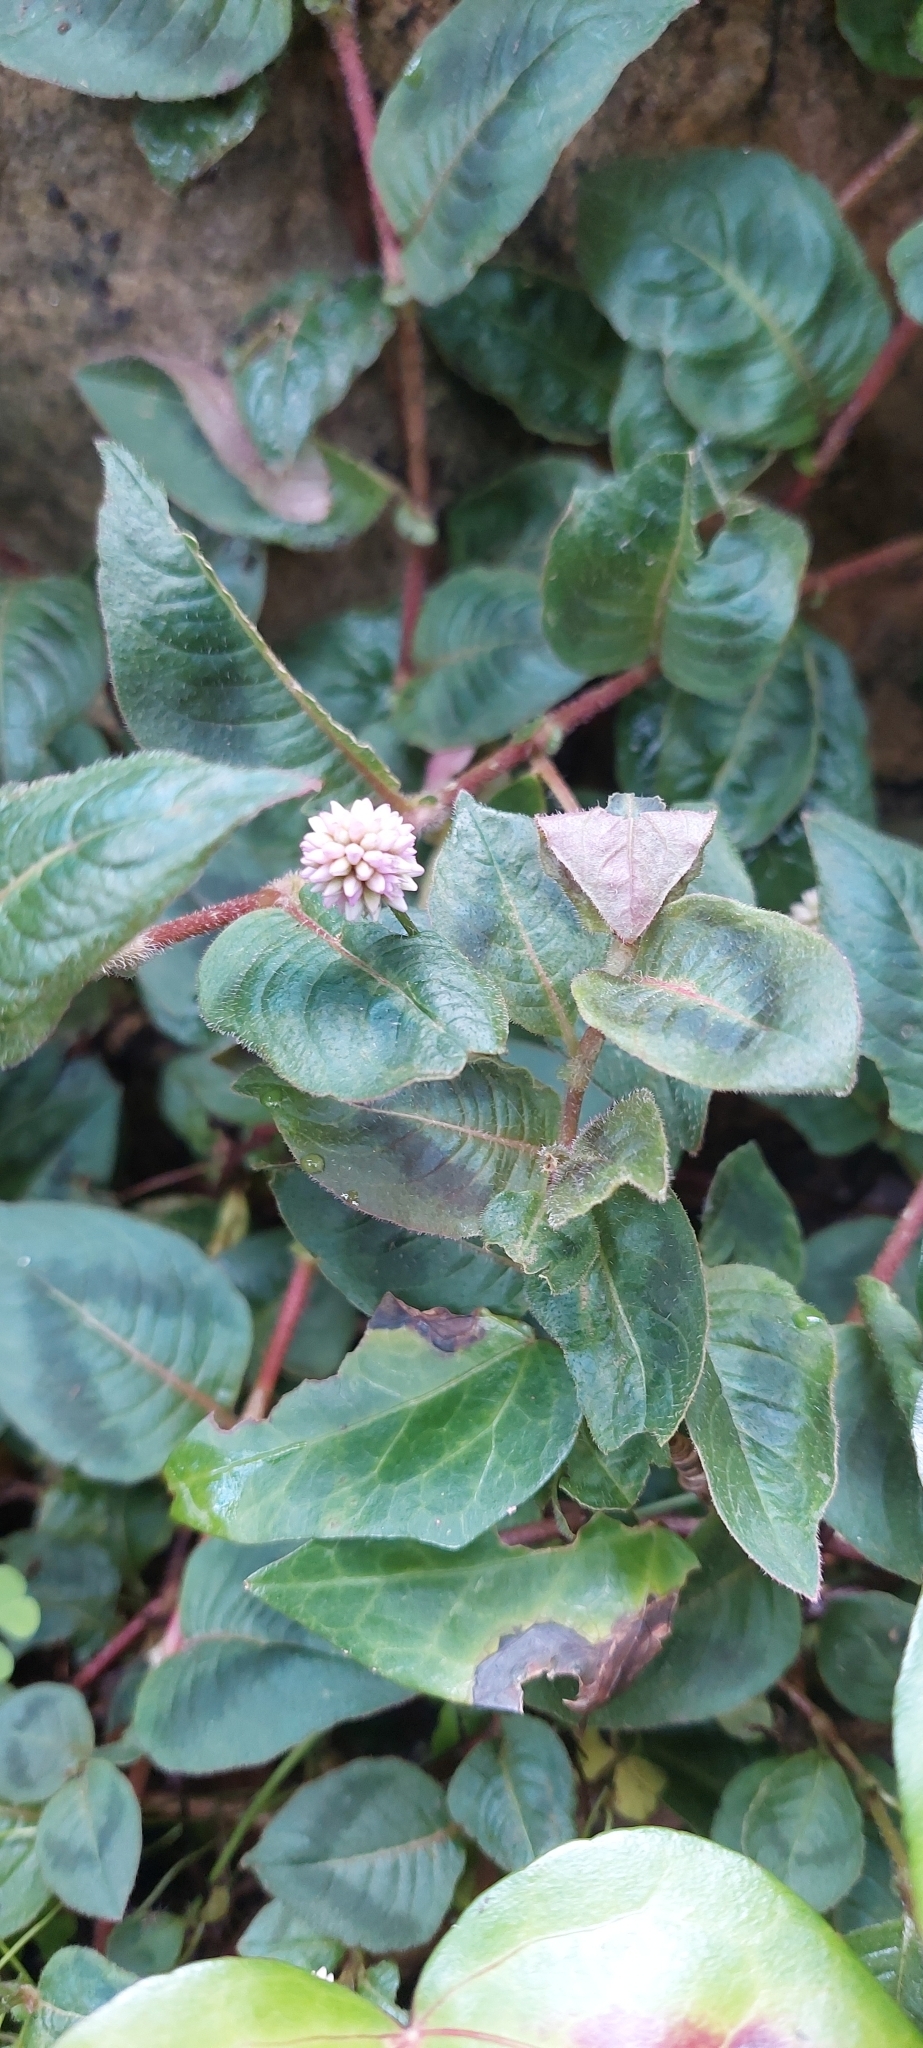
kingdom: Plantae
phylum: Tracheophyta
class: Magnoliopsida
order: Caryophyllales
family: Polygonaceae
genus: Persicaria
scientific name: Persicaria capitata
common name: Pinkhead smartweed
